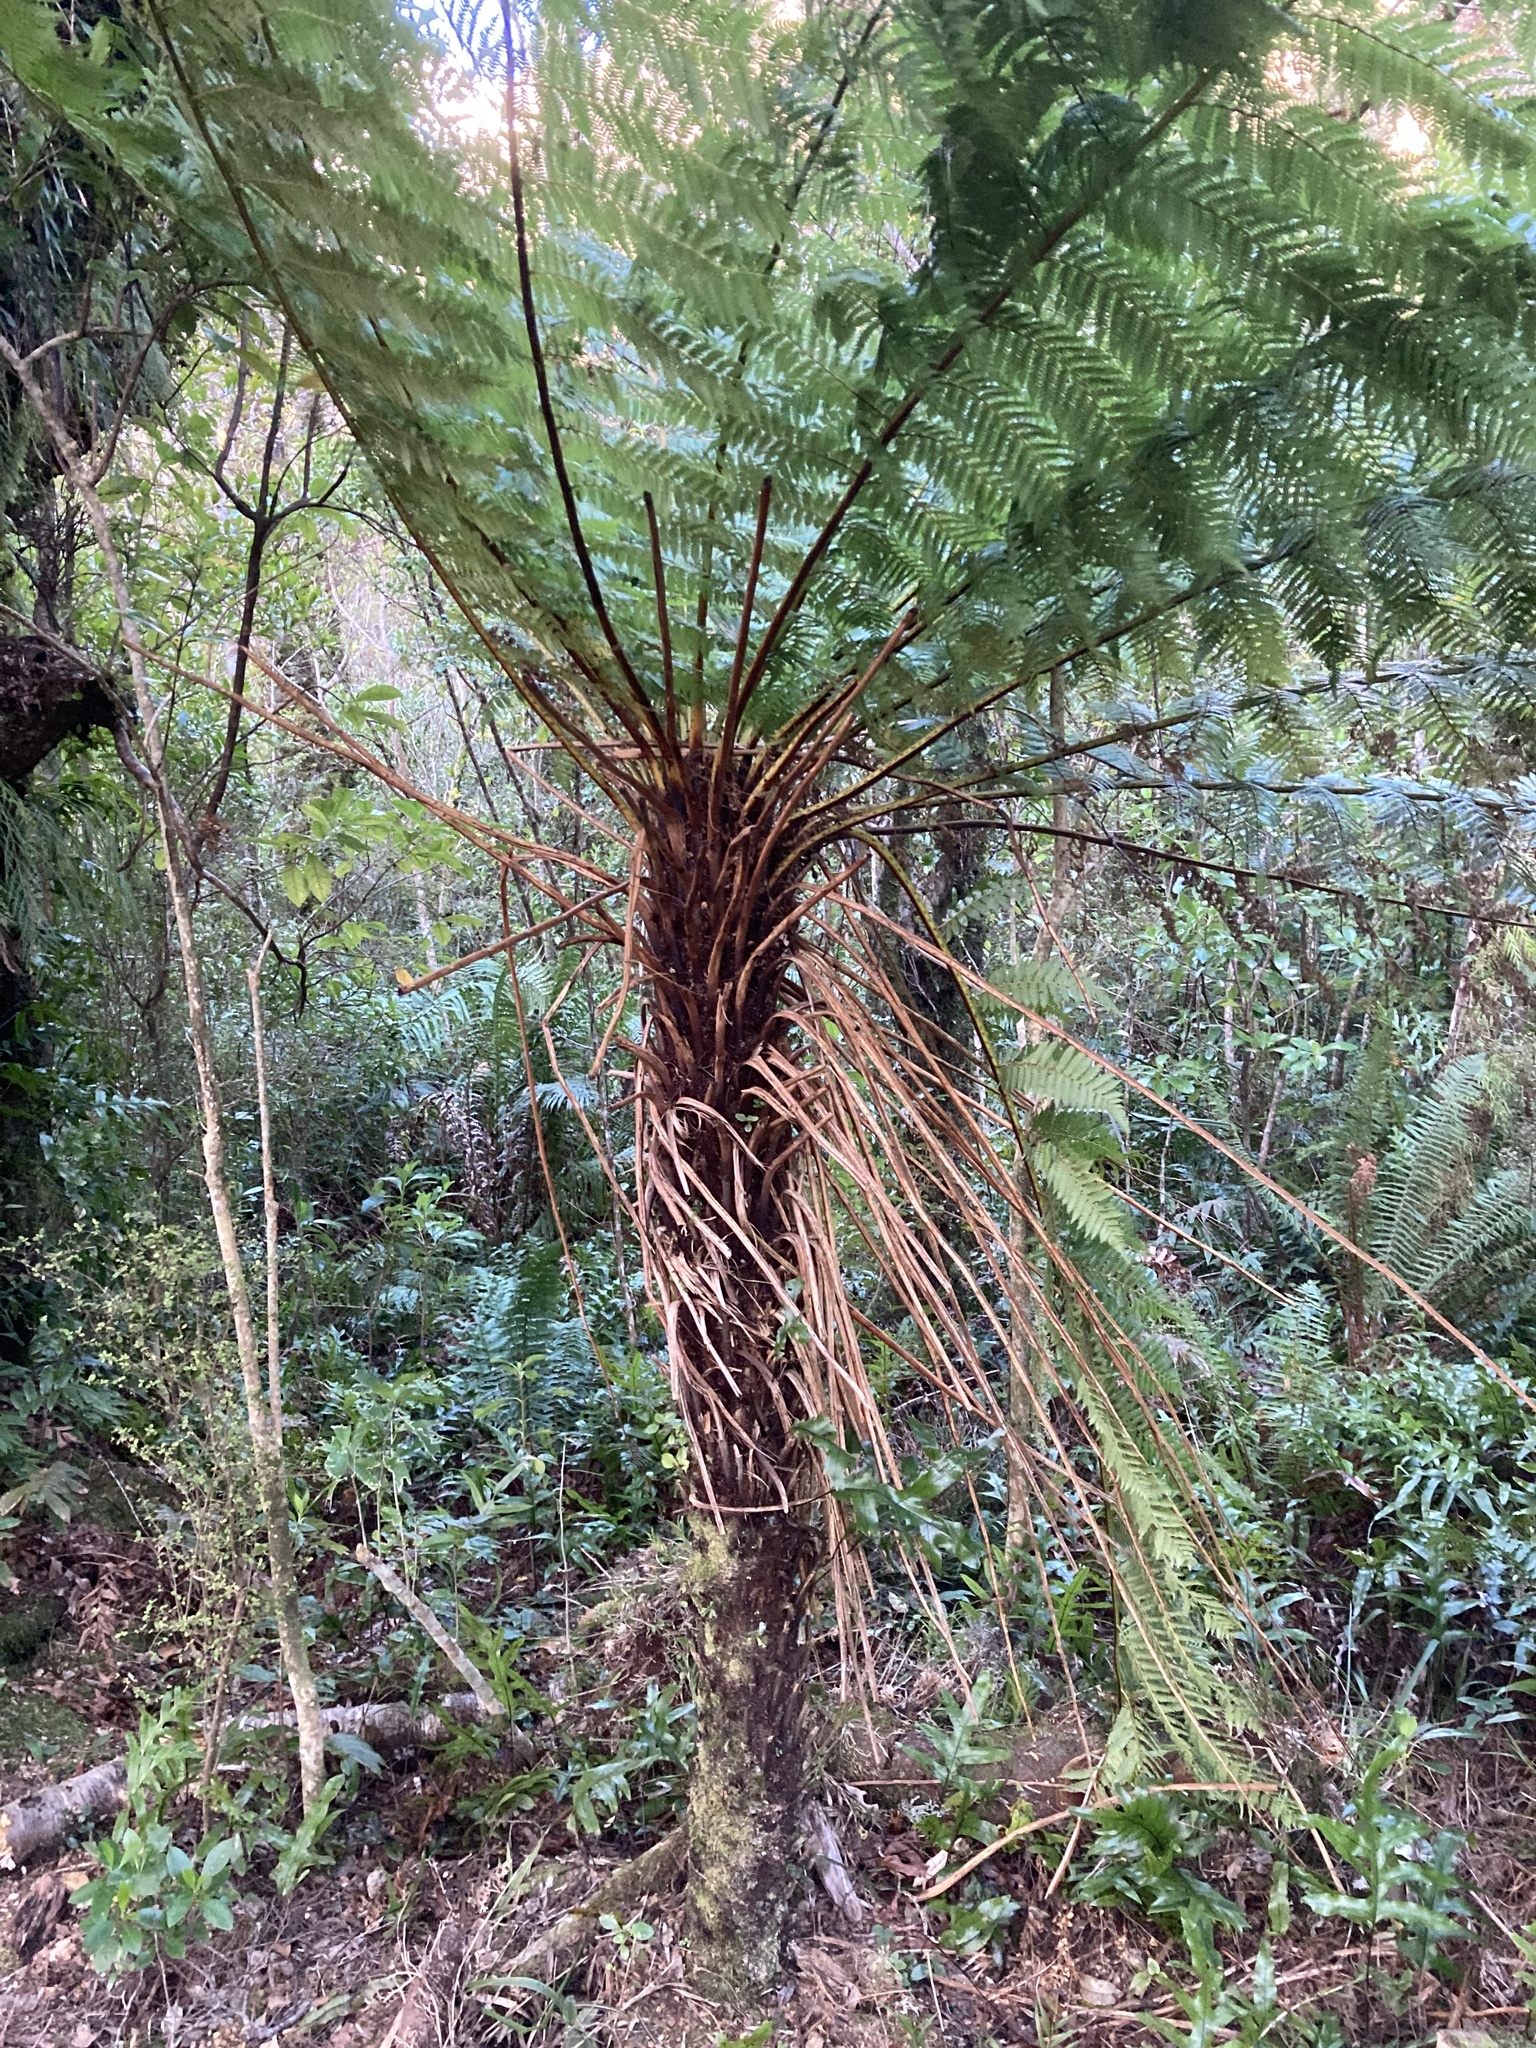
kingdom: Plantae
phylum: Tracheophyta
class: Polypodiopsida
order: Cyatheales
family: Cyatheaceae
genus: Alsophila
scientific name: Alsophila smithii
